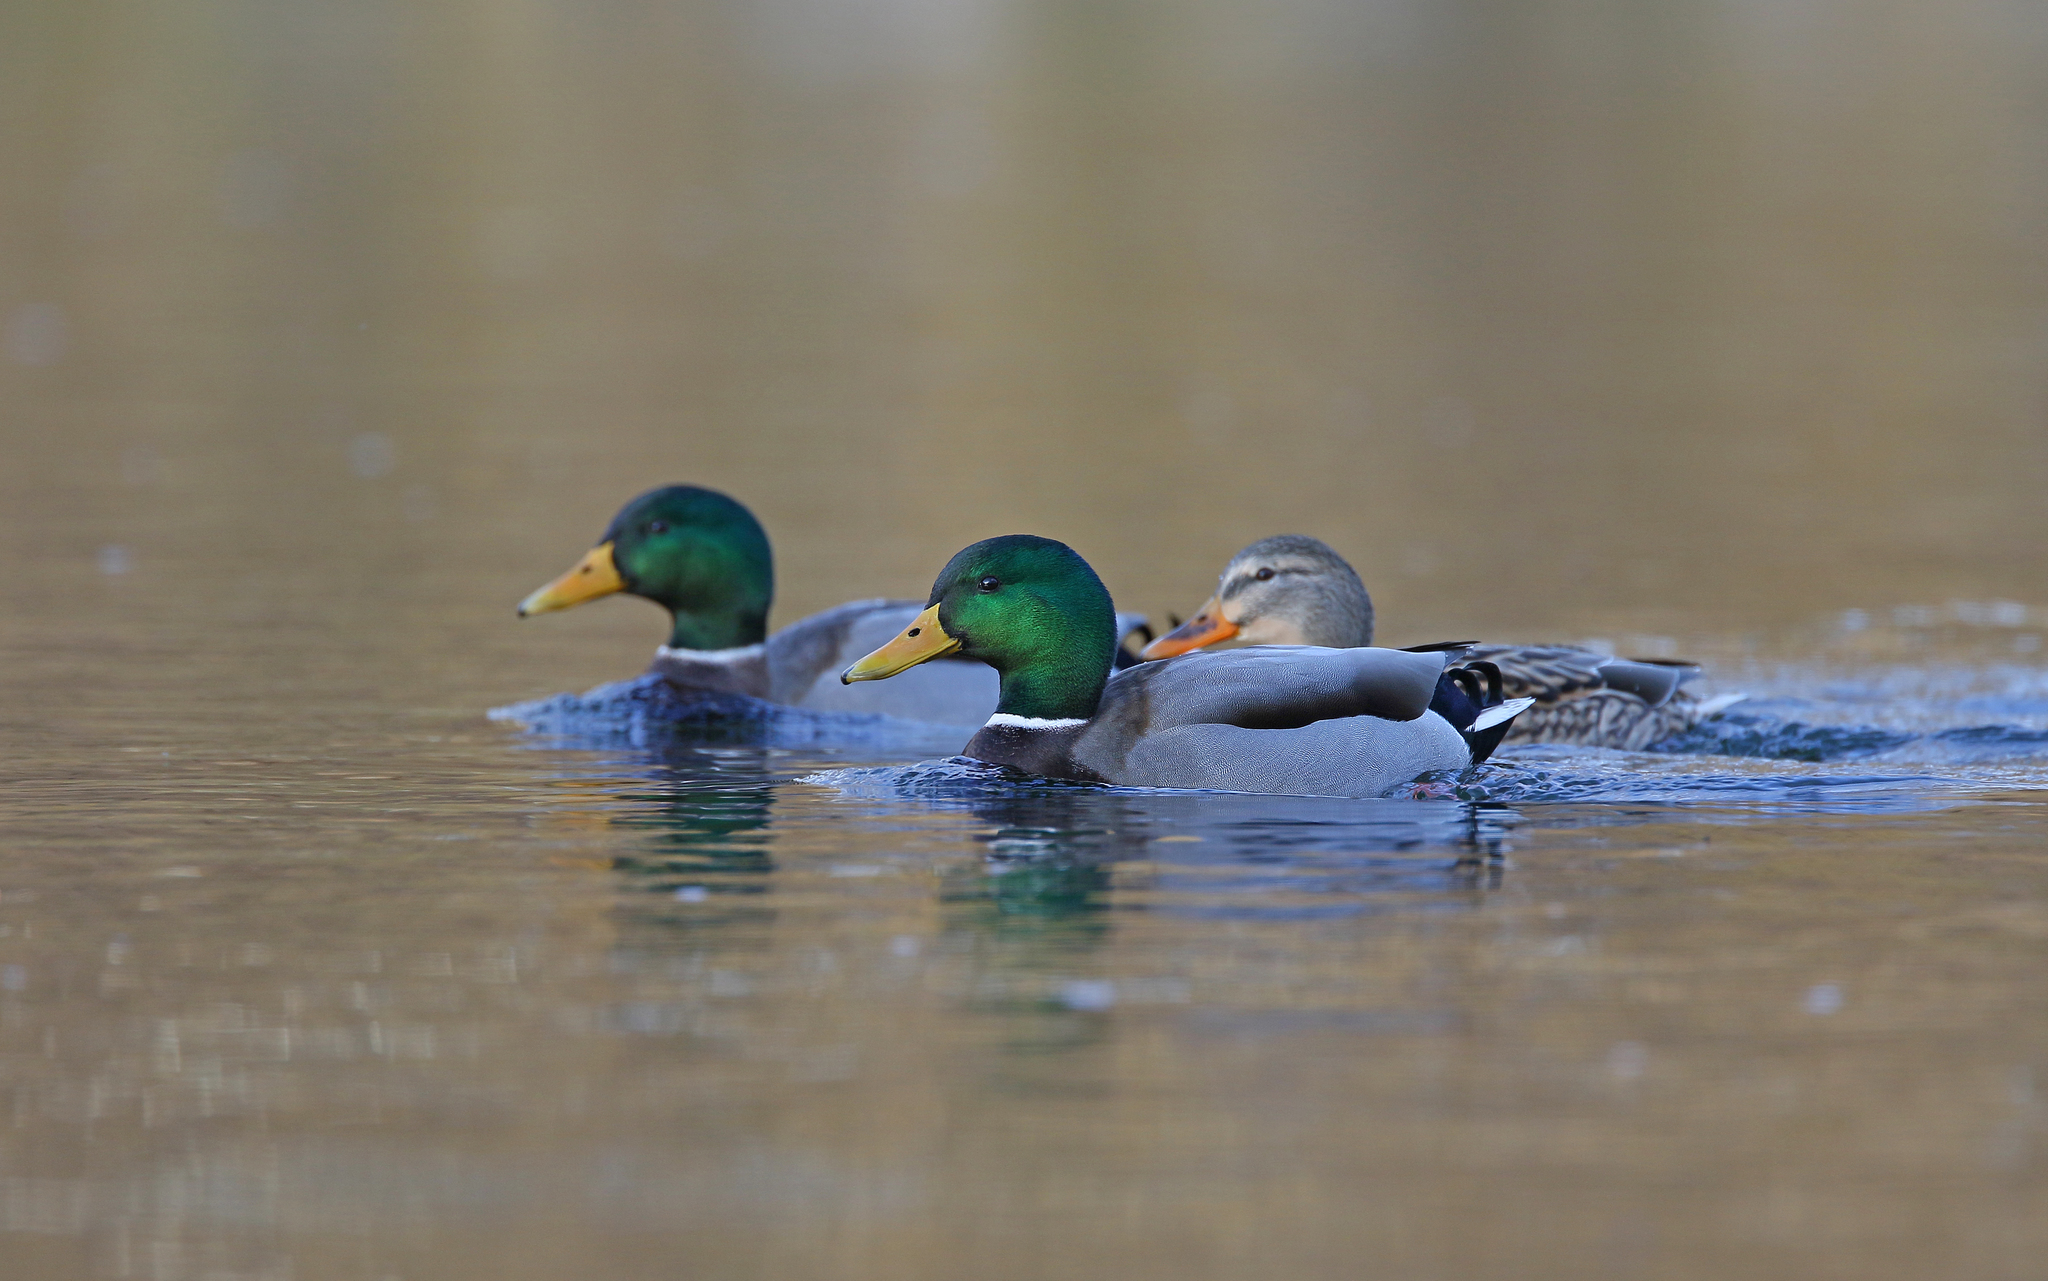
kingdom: Animalia
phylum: Chordata
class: Aves
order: Anseriformes
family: Anatidae
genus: Anas
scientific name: Anas platyrhynchos
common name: Mallard
